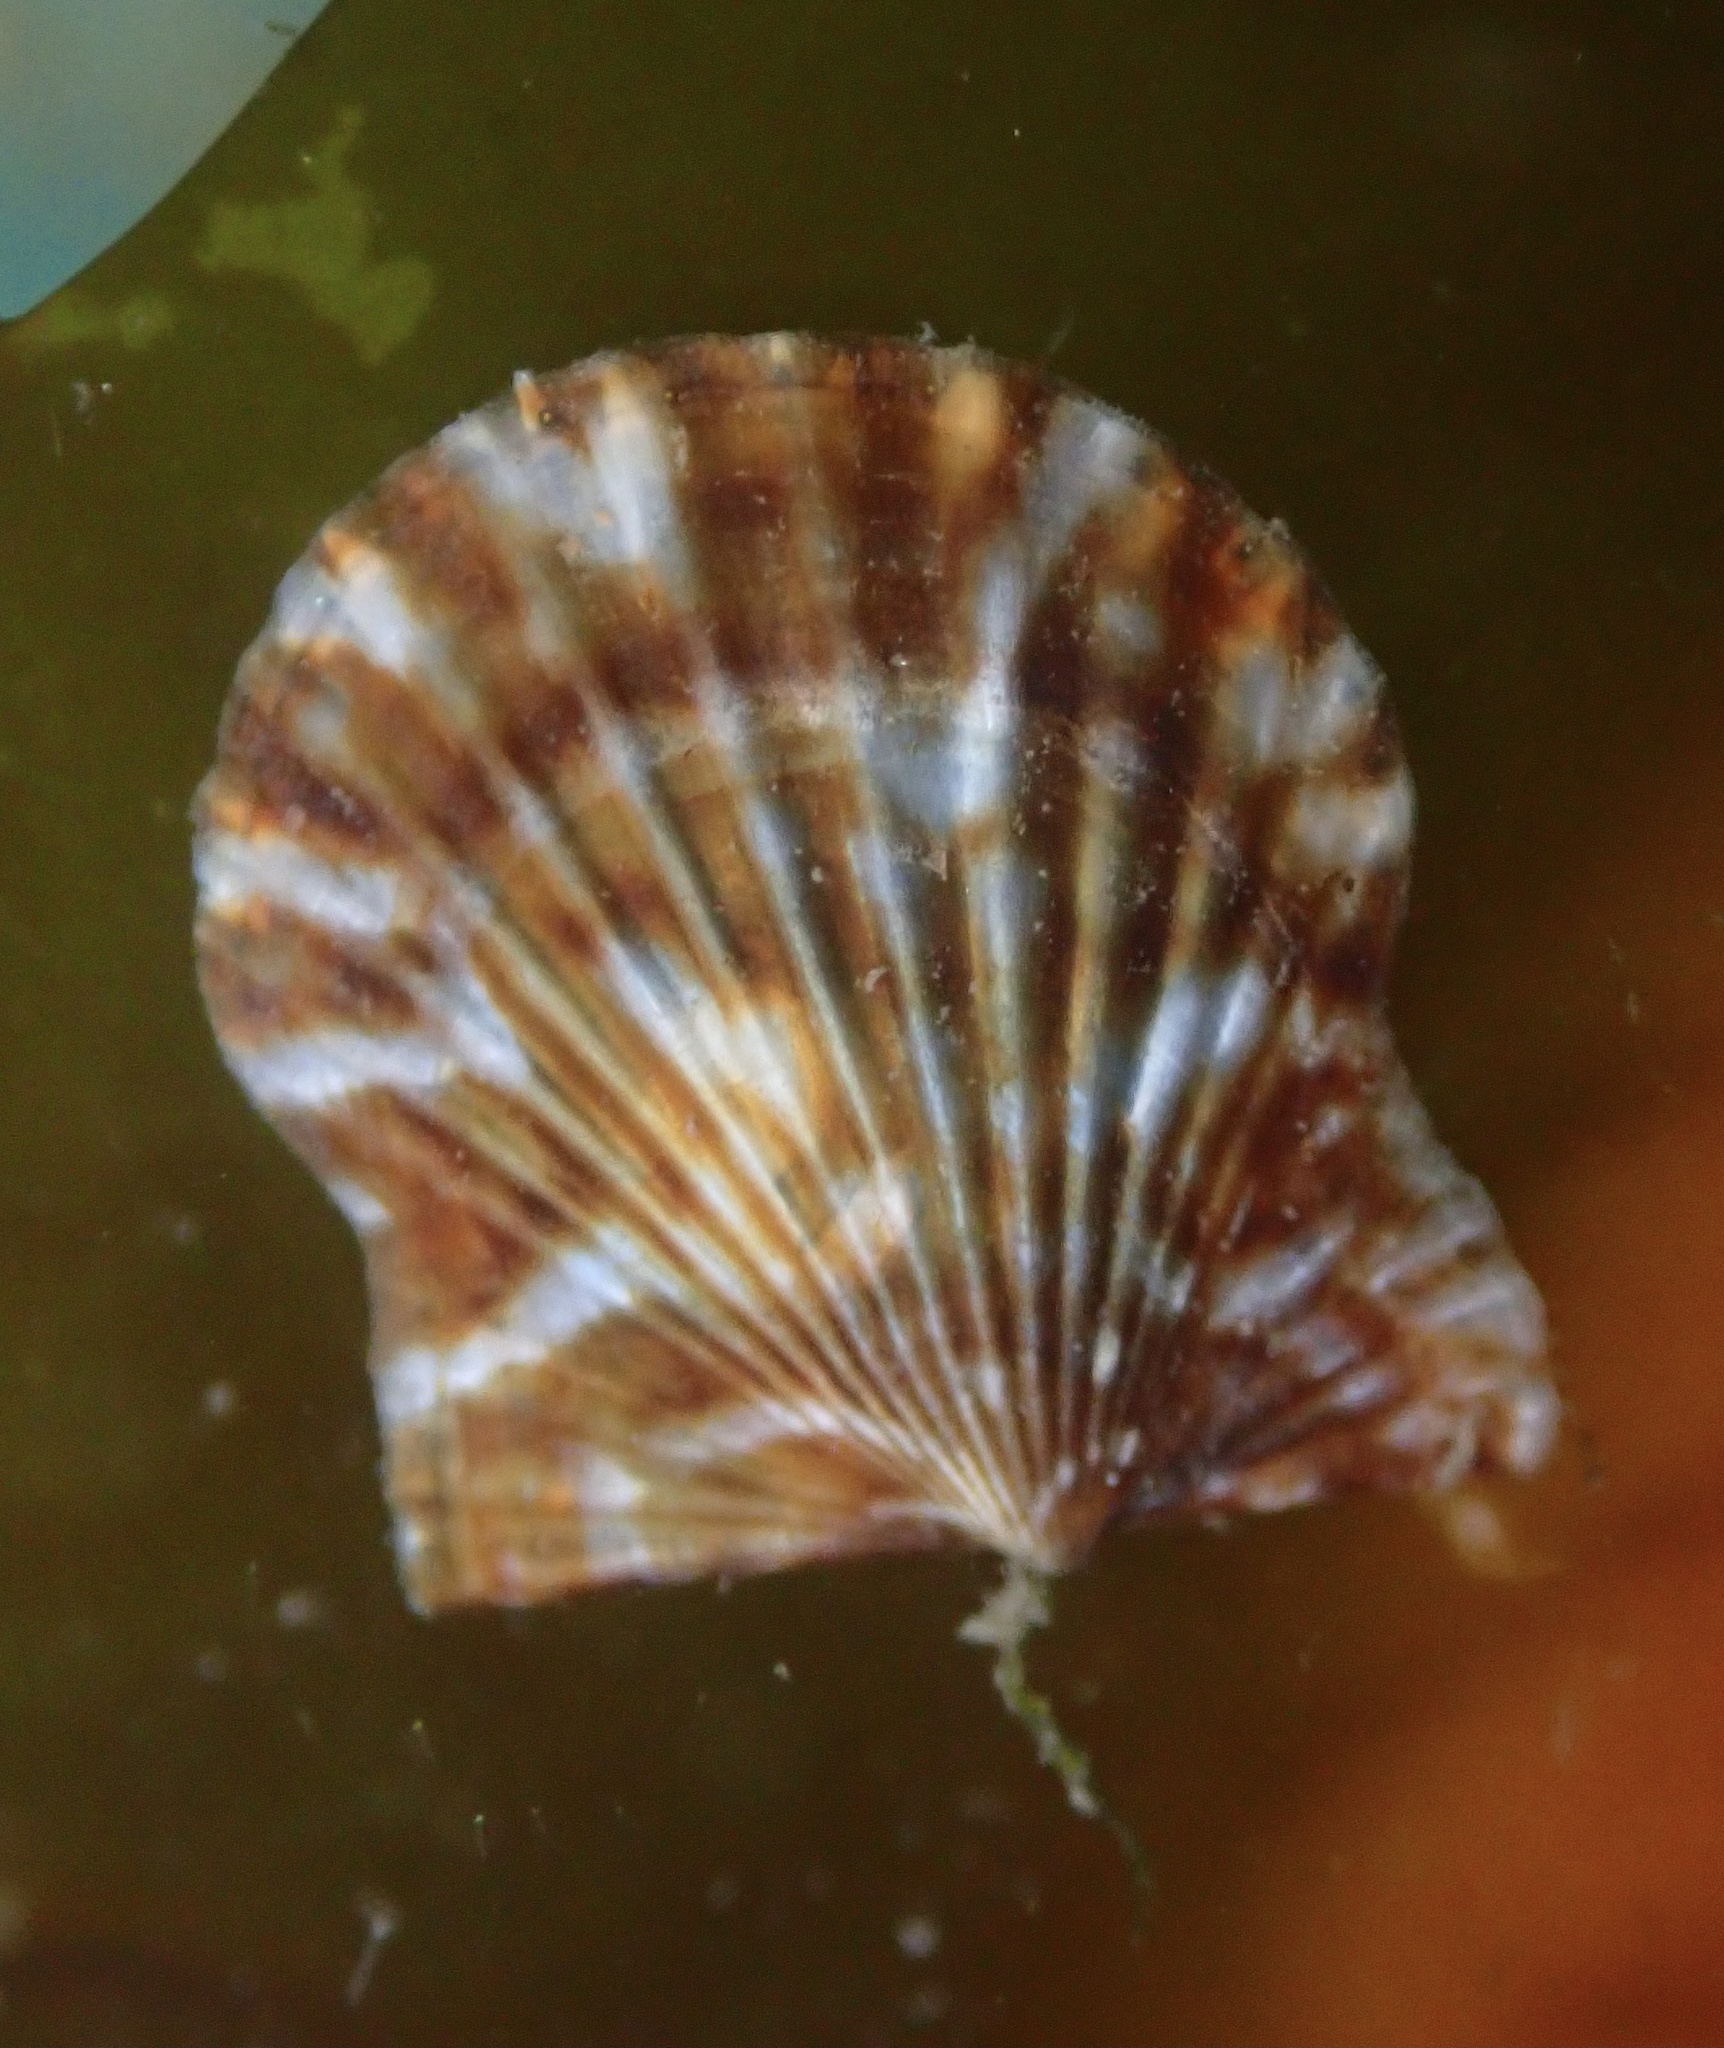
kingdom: Animalia
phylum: Mollusca
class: Bivalvia
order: Pectinida
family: Pectinidae
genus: Leptopecten
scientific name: Leptopecten latiauratus
